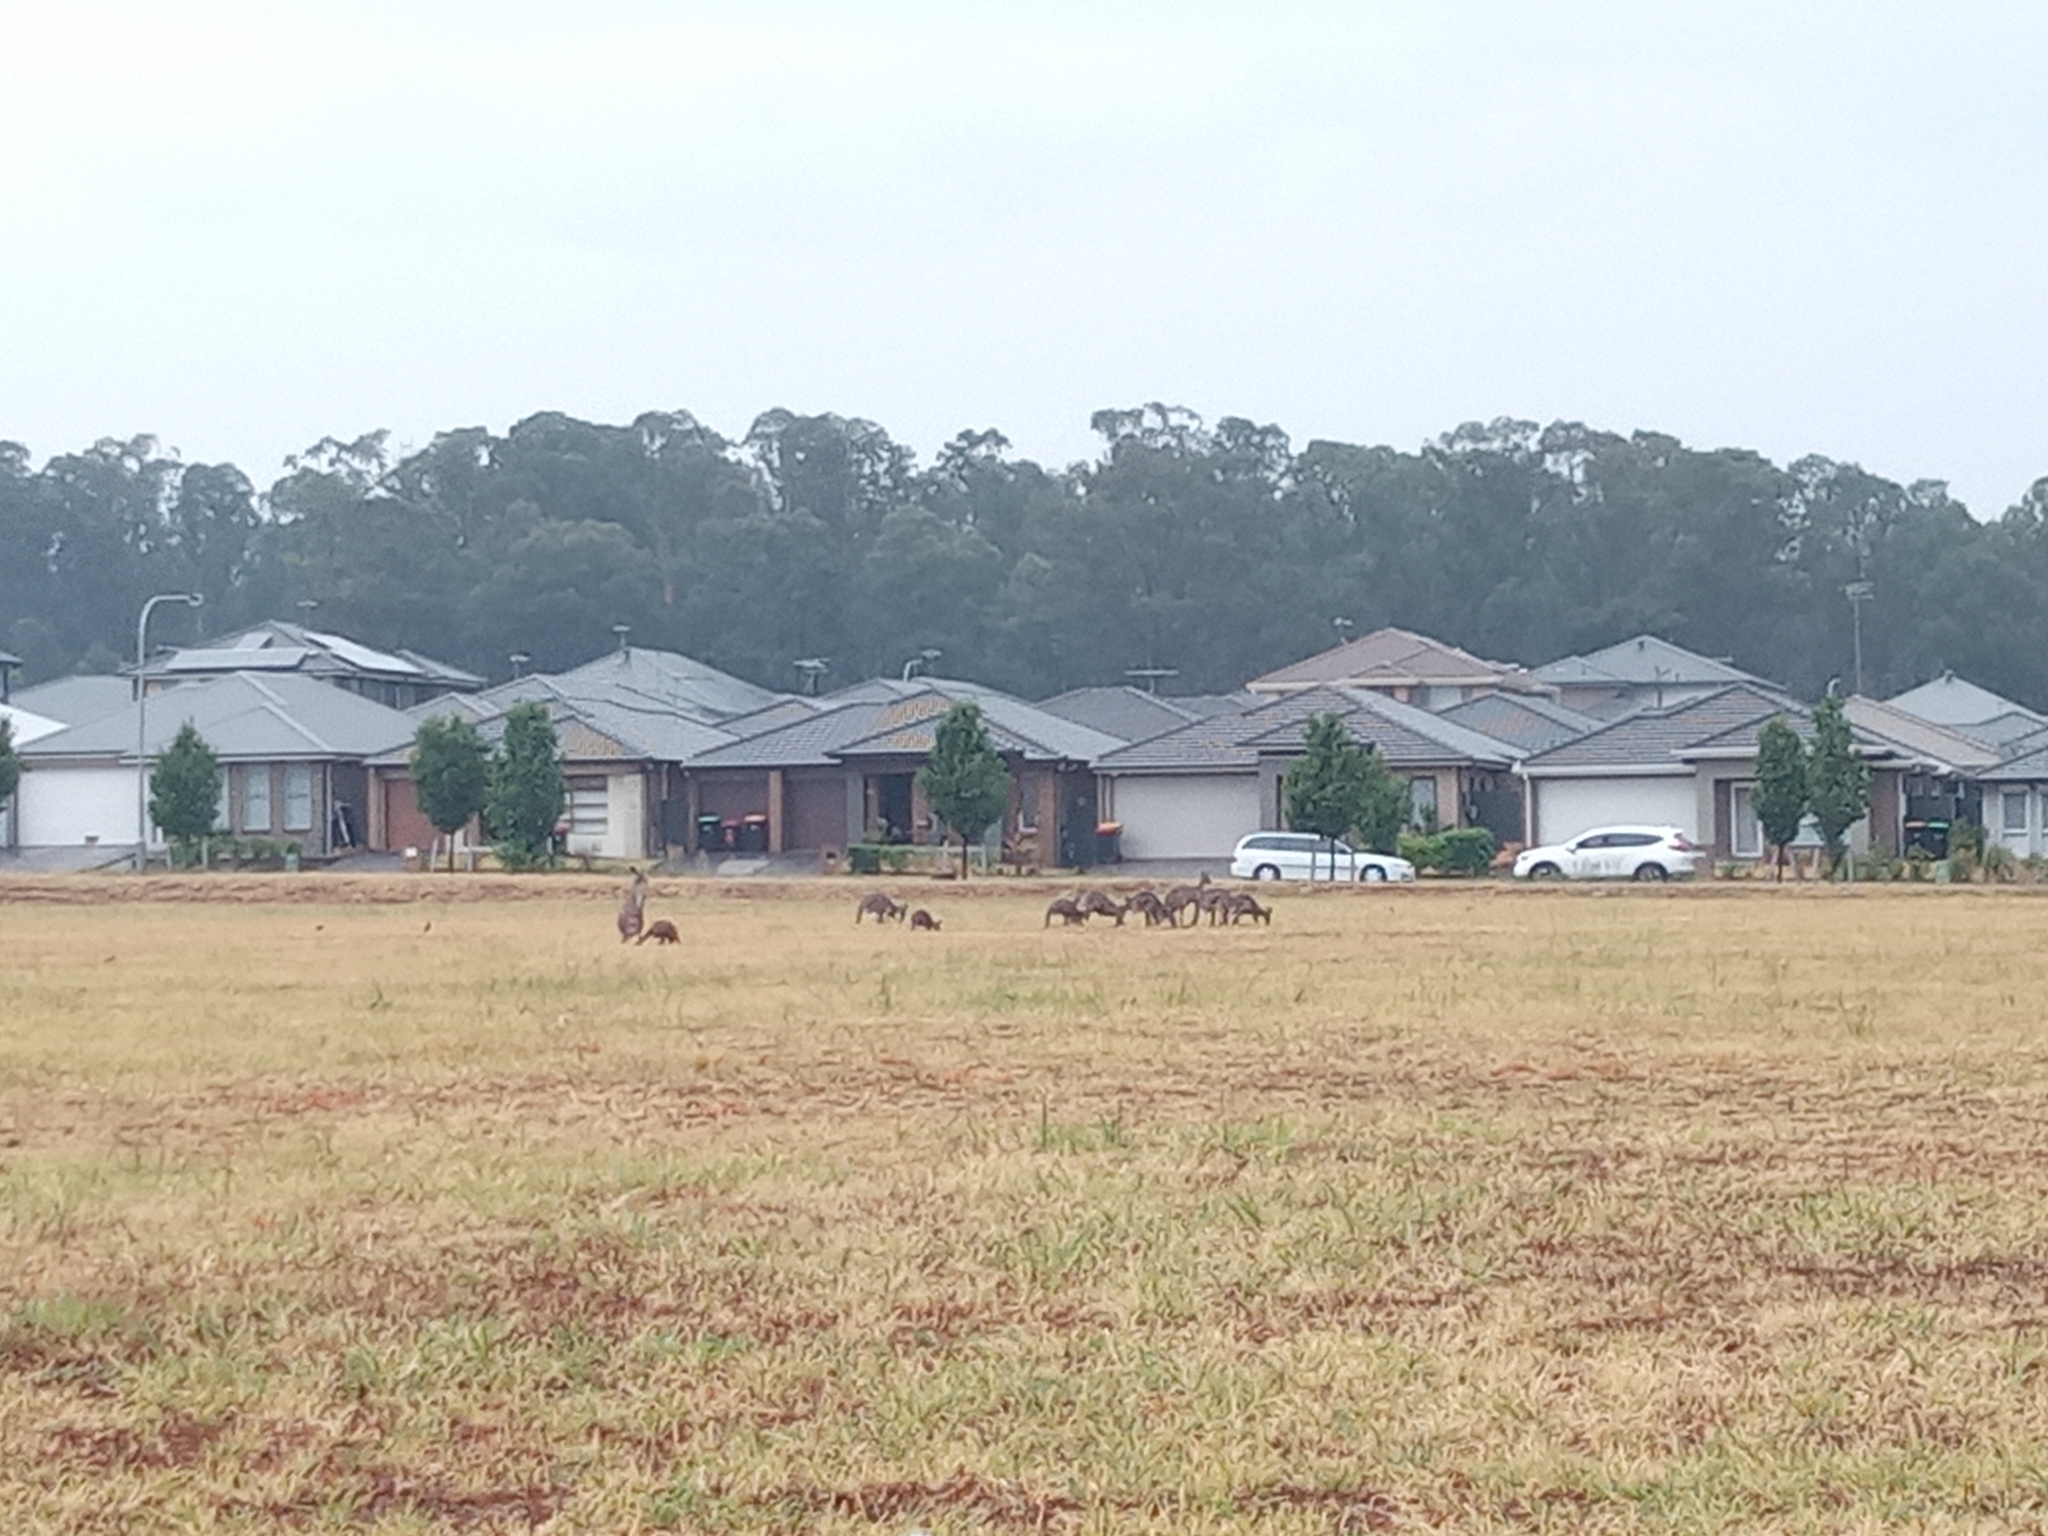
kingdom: Animalia
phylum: Chordata
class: Mammalia
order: Diprotodontia
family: Macropodidae
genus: Macropus
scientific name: Macropus giganteus
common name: Eastern grey kangaroo
